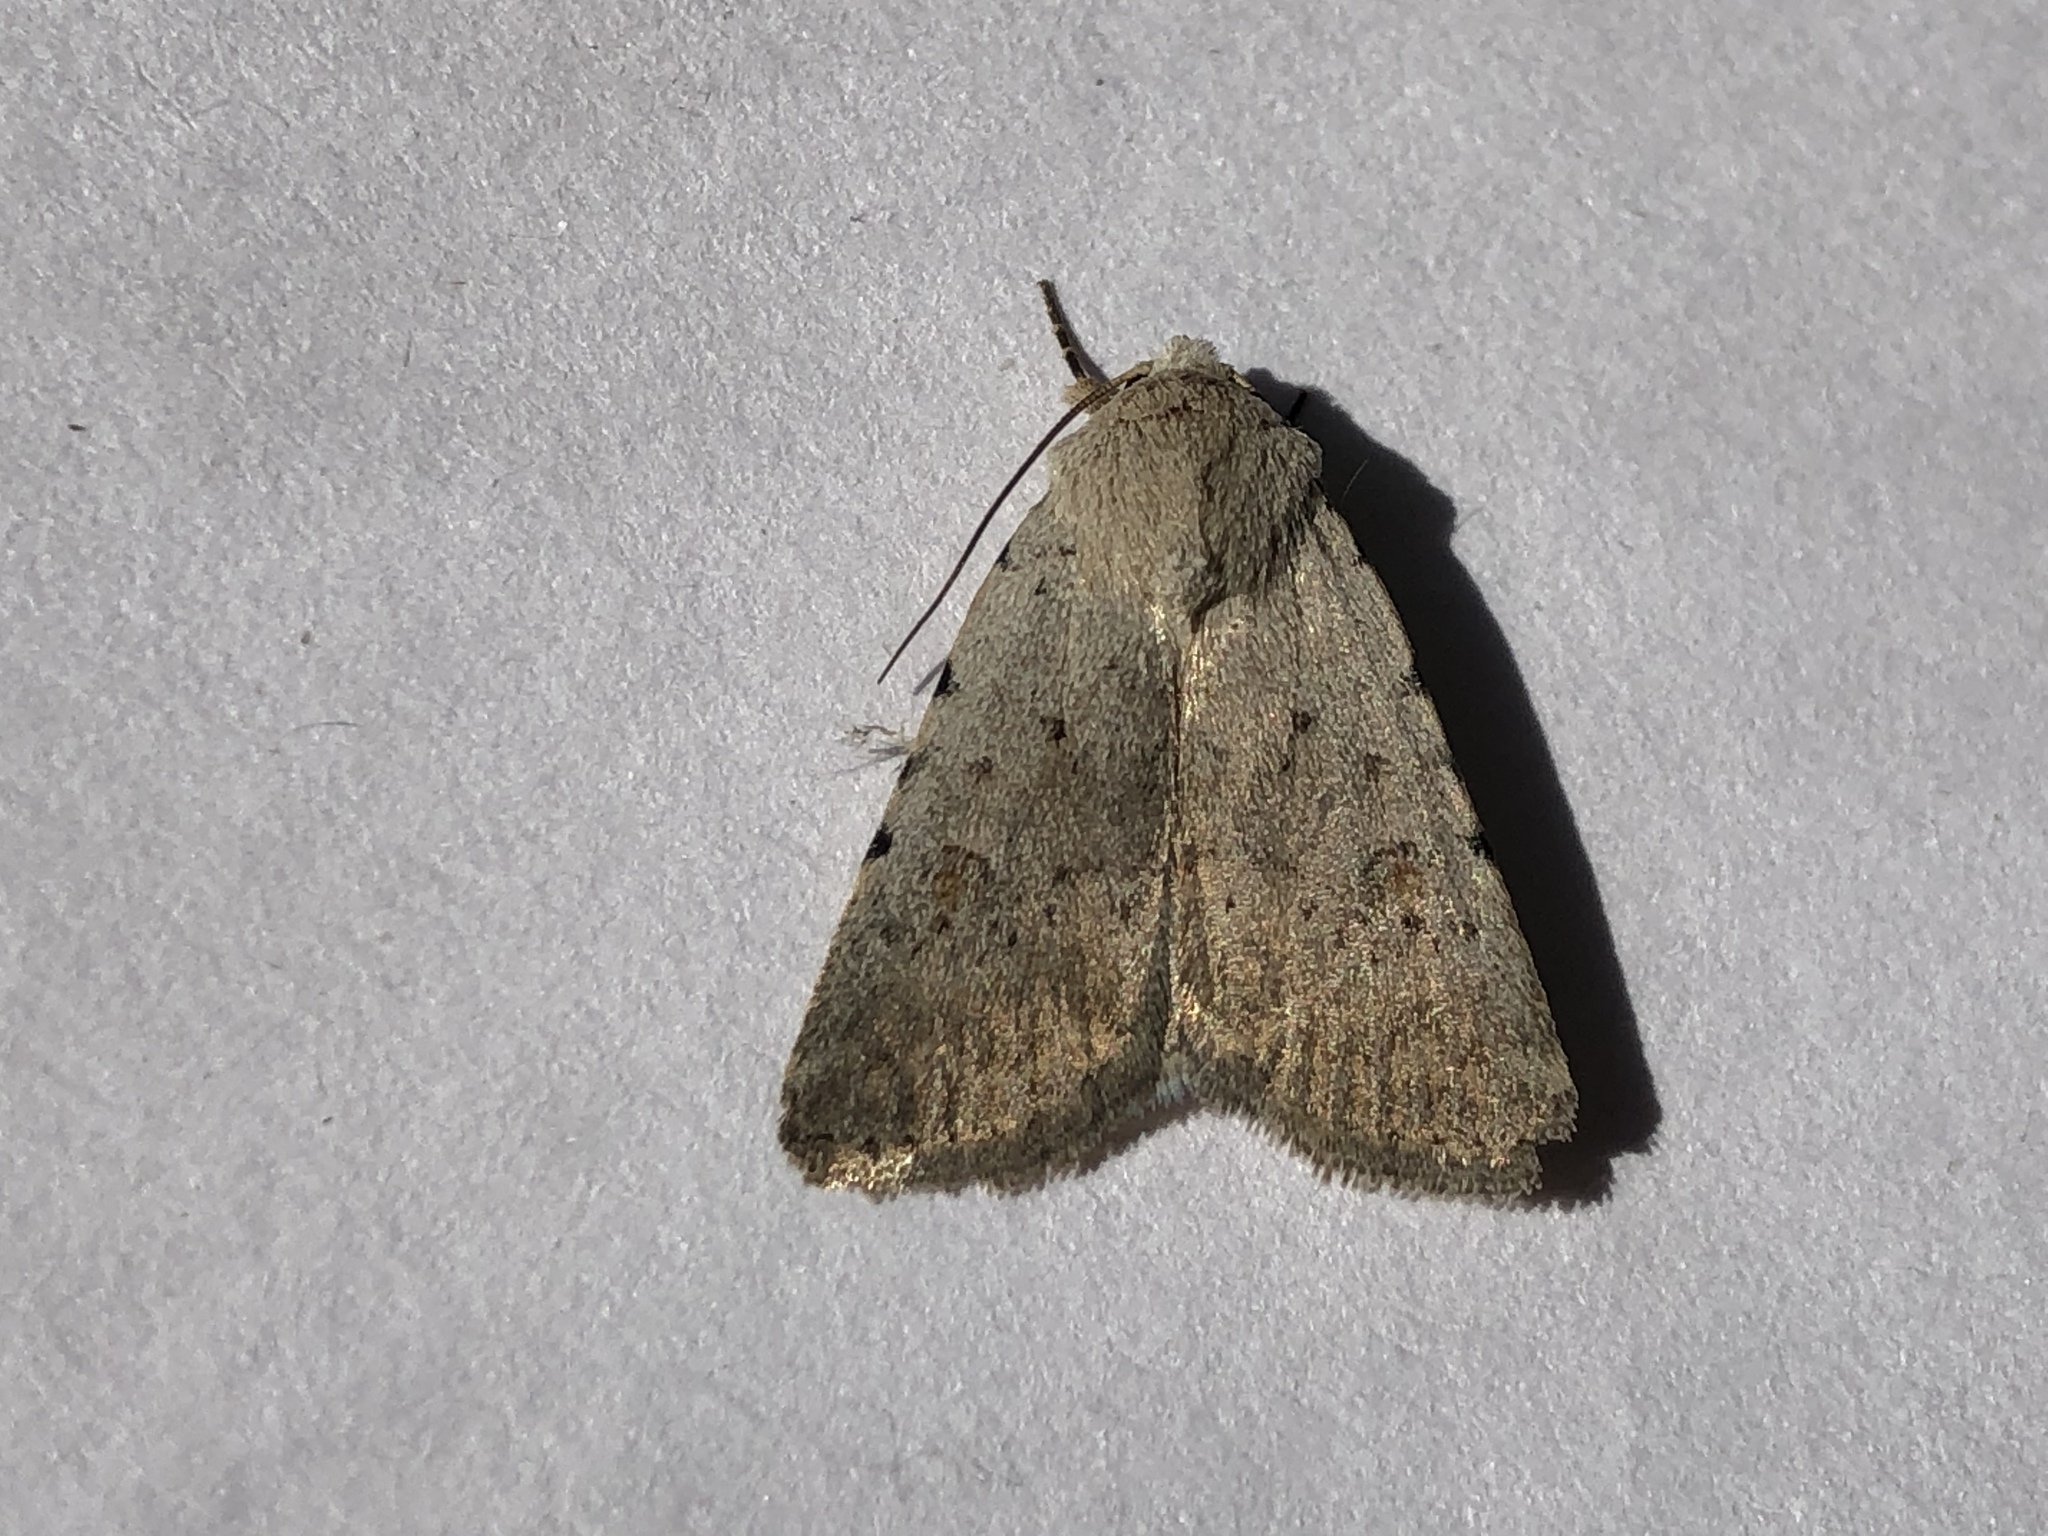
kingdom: Animalia
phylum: Arthropoda
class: Insecta
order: Lepidoptera
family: Noctuidae
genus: Caradrina
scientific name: Caradrina clavipalpis
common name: Pale mottled willow
